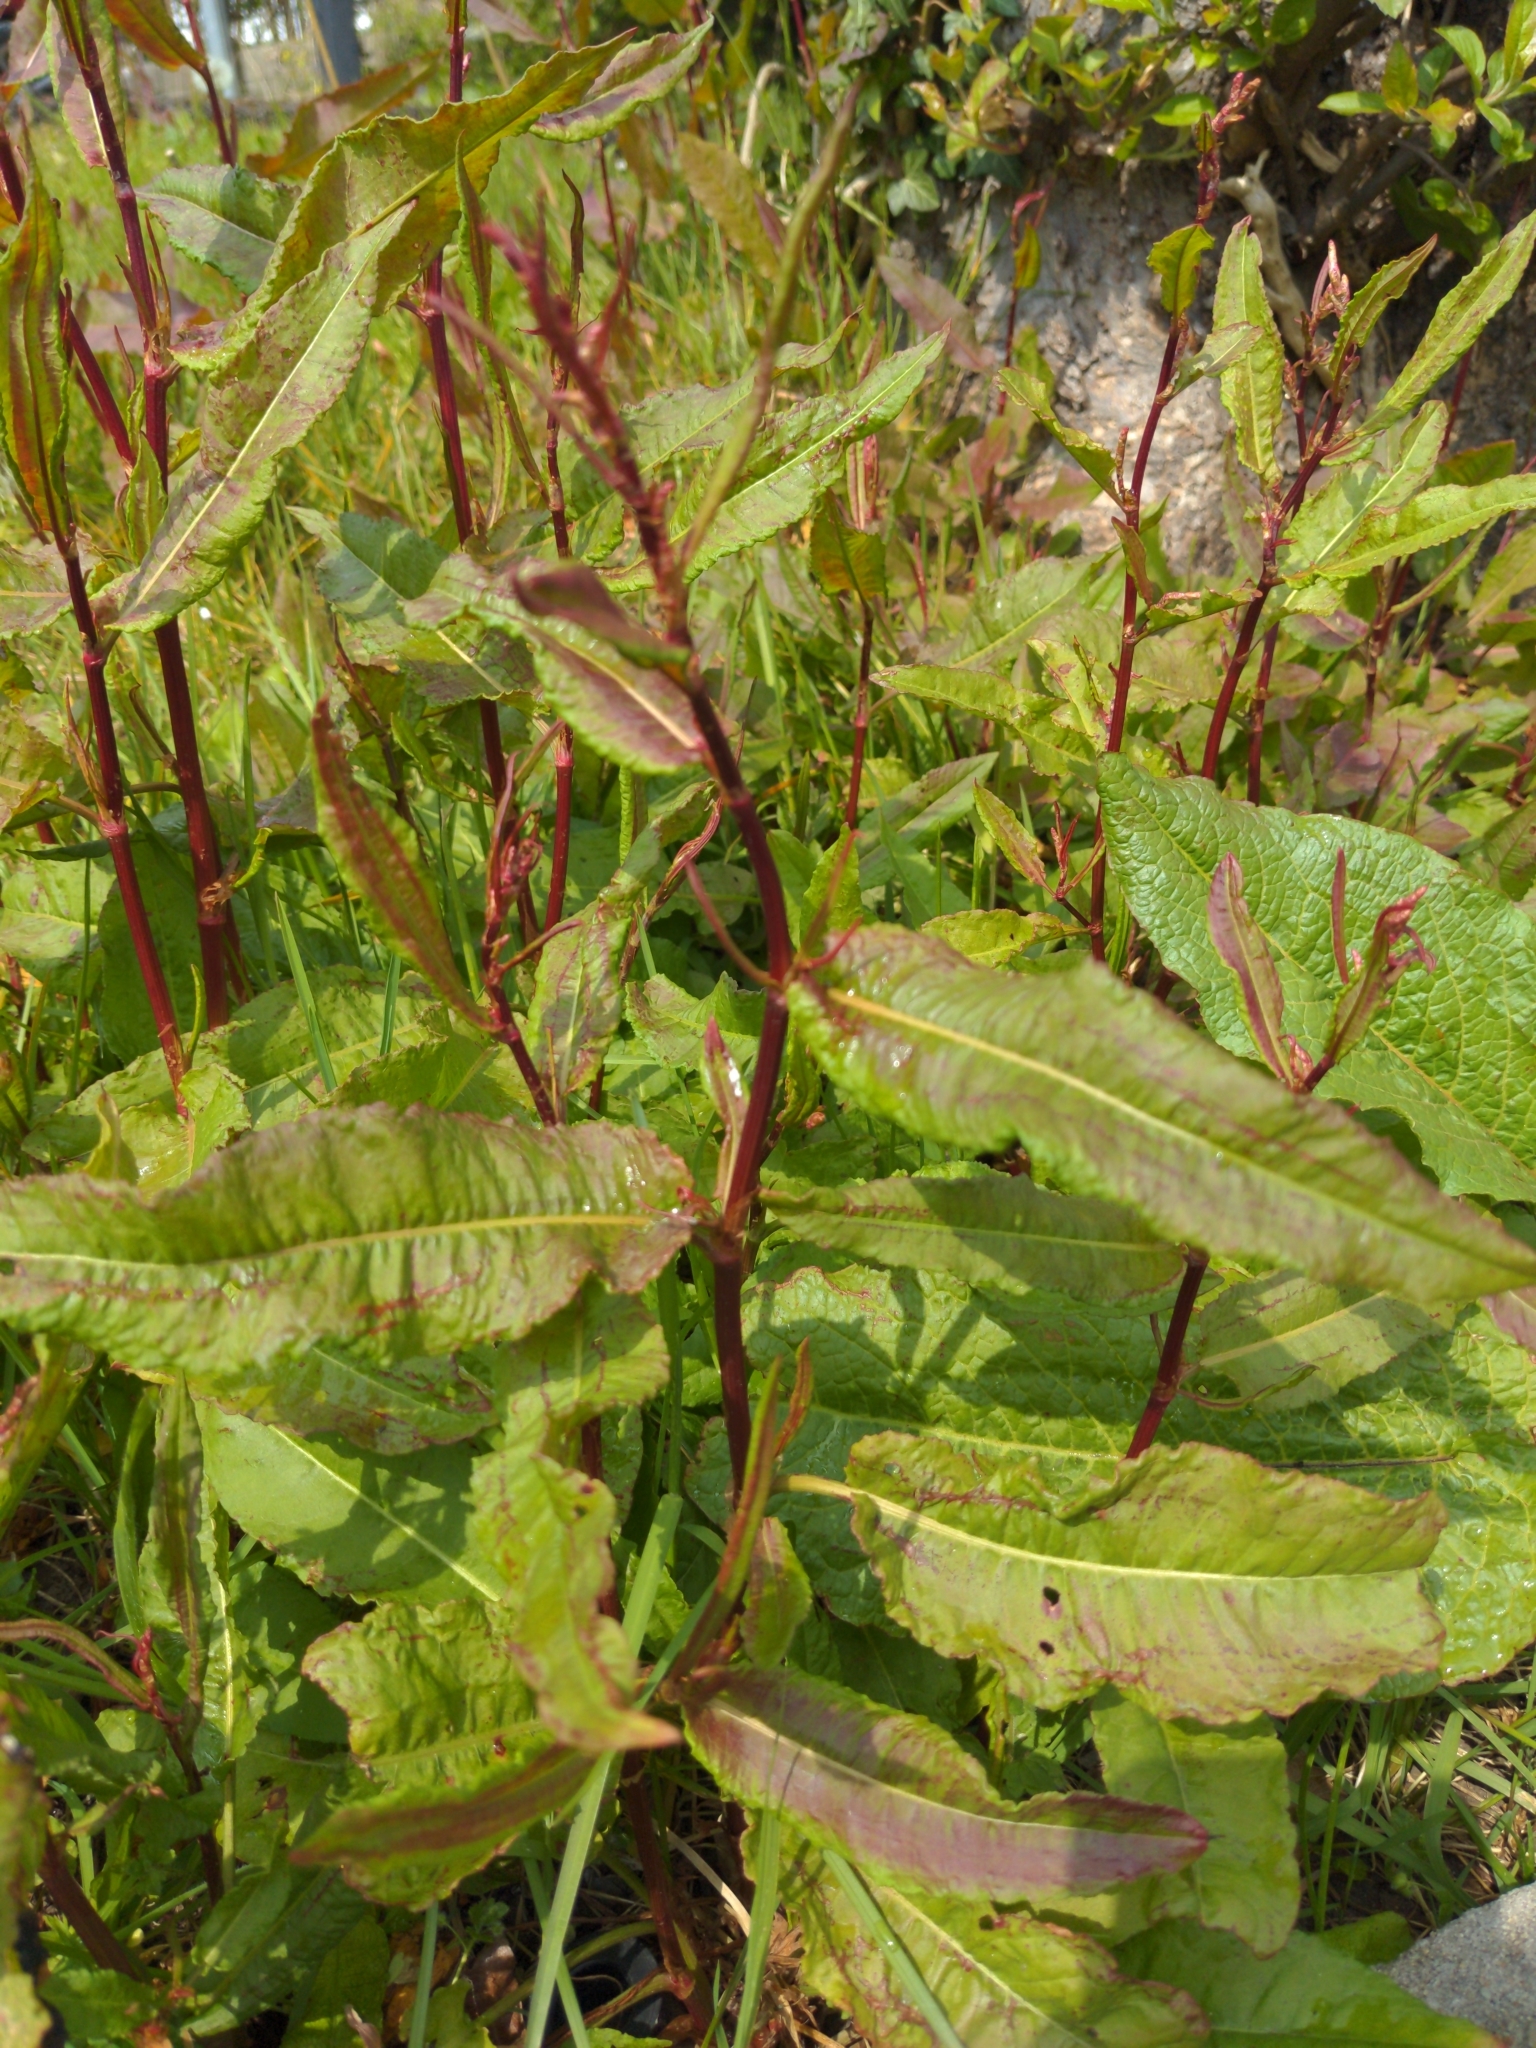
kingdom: Plantae
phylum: Tracheophyta
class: Magnoliopsida
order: Caryophyllales
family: Polygonaceae
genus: Rumex
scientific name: Rumex sanguineus
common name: Wood dock
